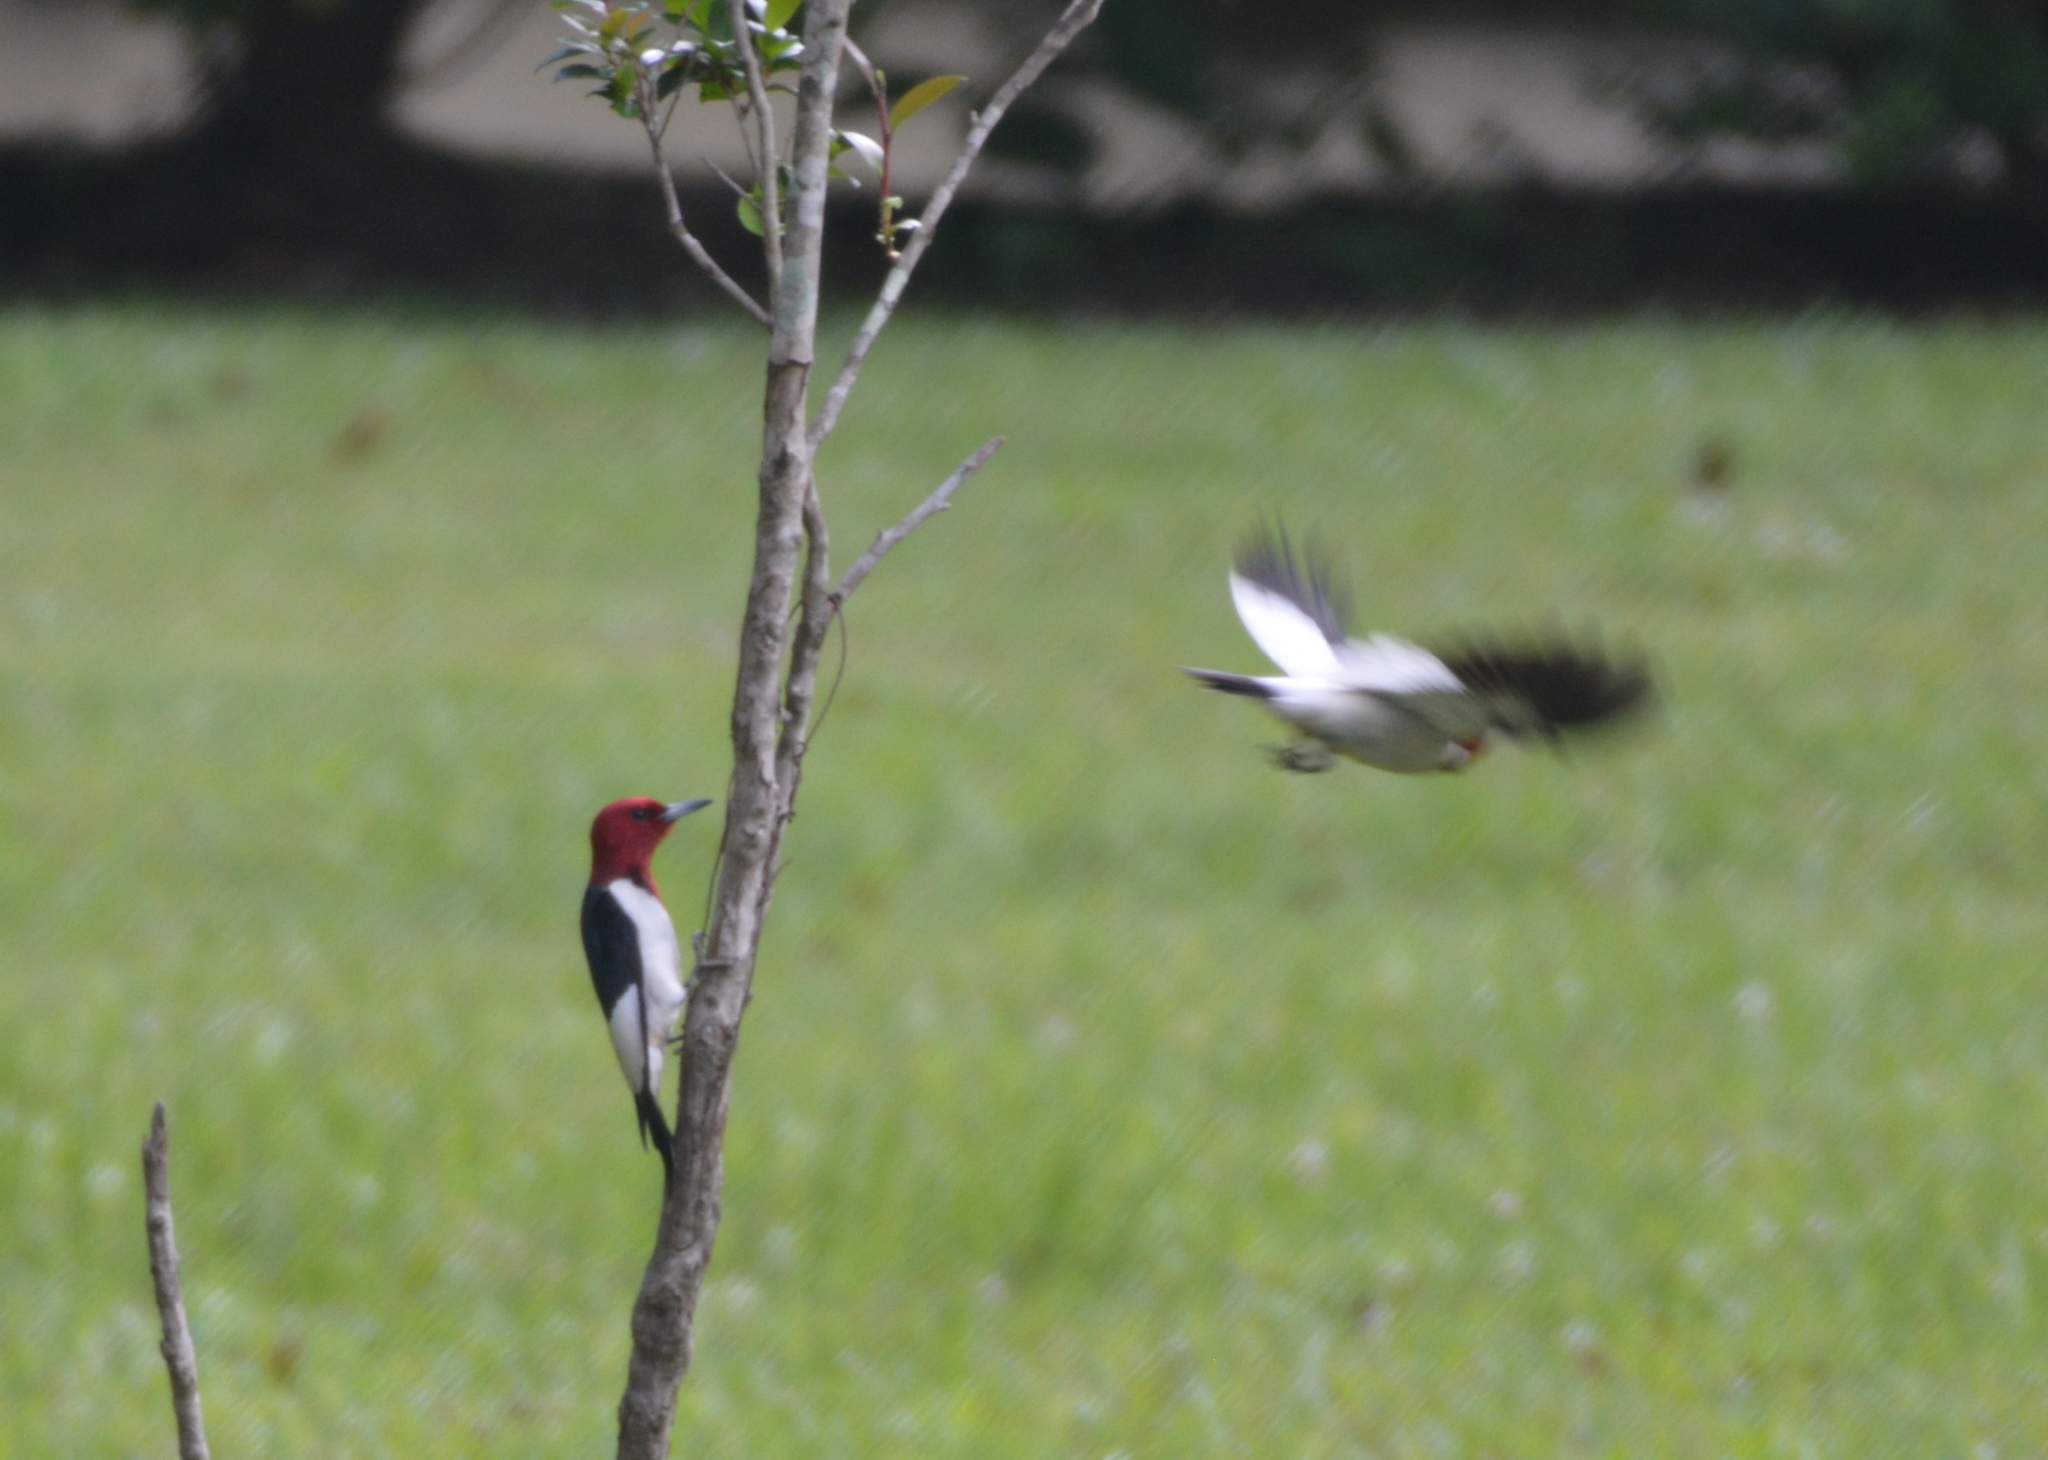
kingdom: Animalia
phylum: Chordata
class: Aves
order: Piciformes
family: Picidae
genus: Melanerpes
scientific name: Melanerpes erythrocephalus
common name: Red-headed woodpecker
